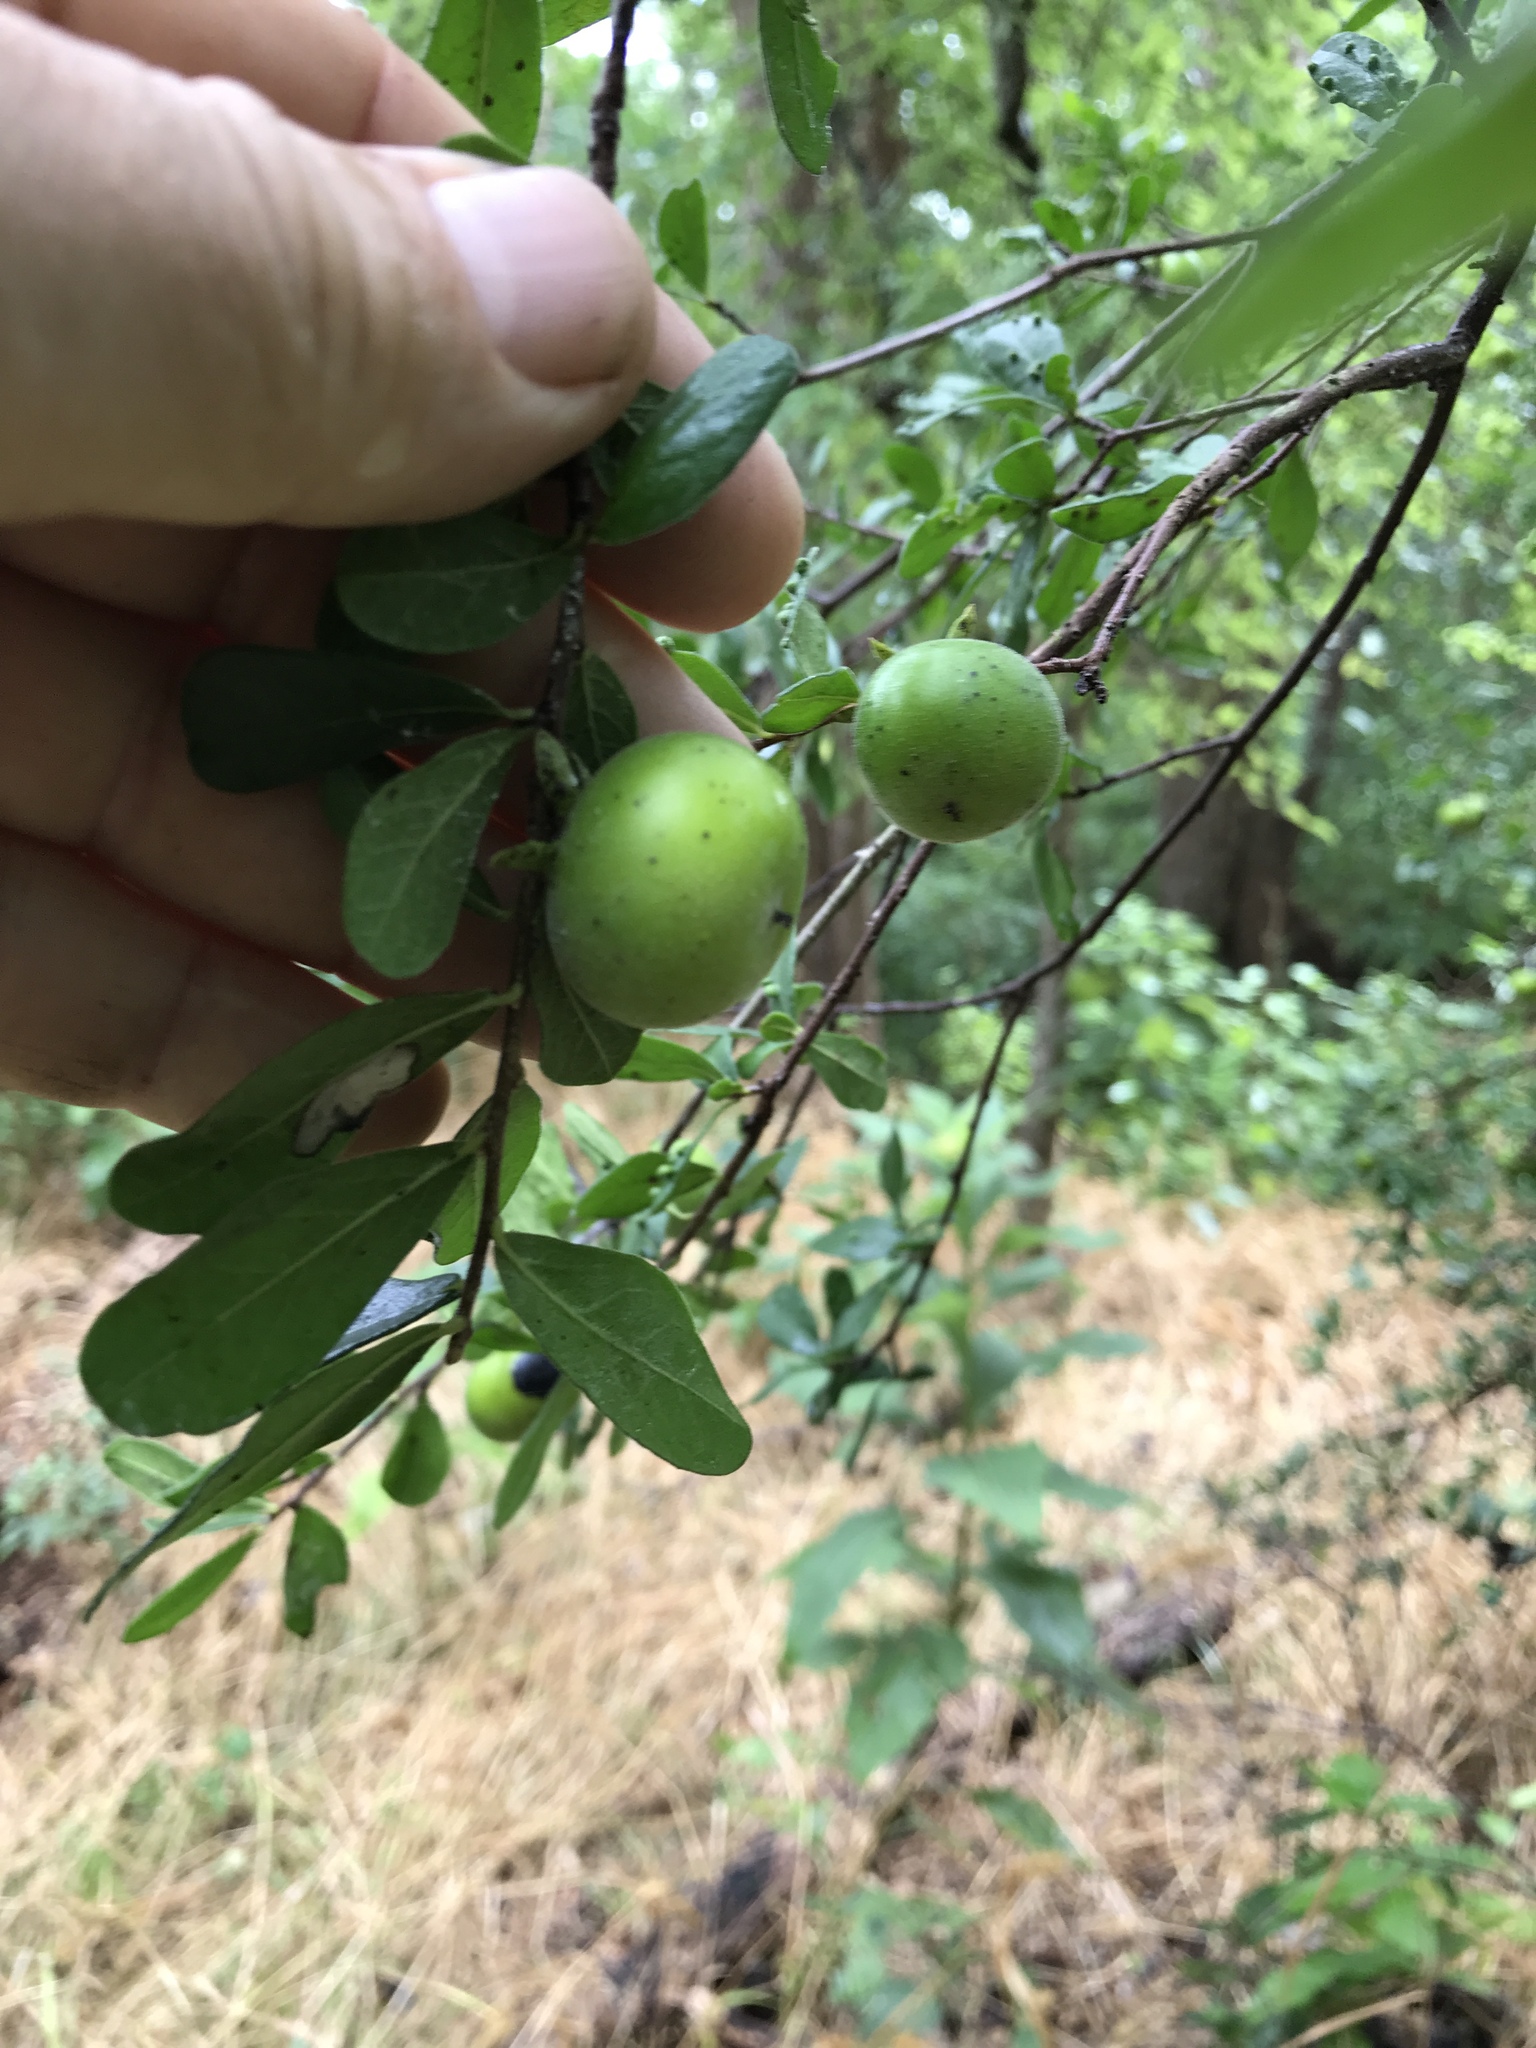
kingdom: Plantae
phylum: Tracheophyta
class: Magnoliopsida
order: Ericales
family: Ebenaceae
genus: Diospyros
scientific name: Diospyros texana
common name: Texas persimmon
